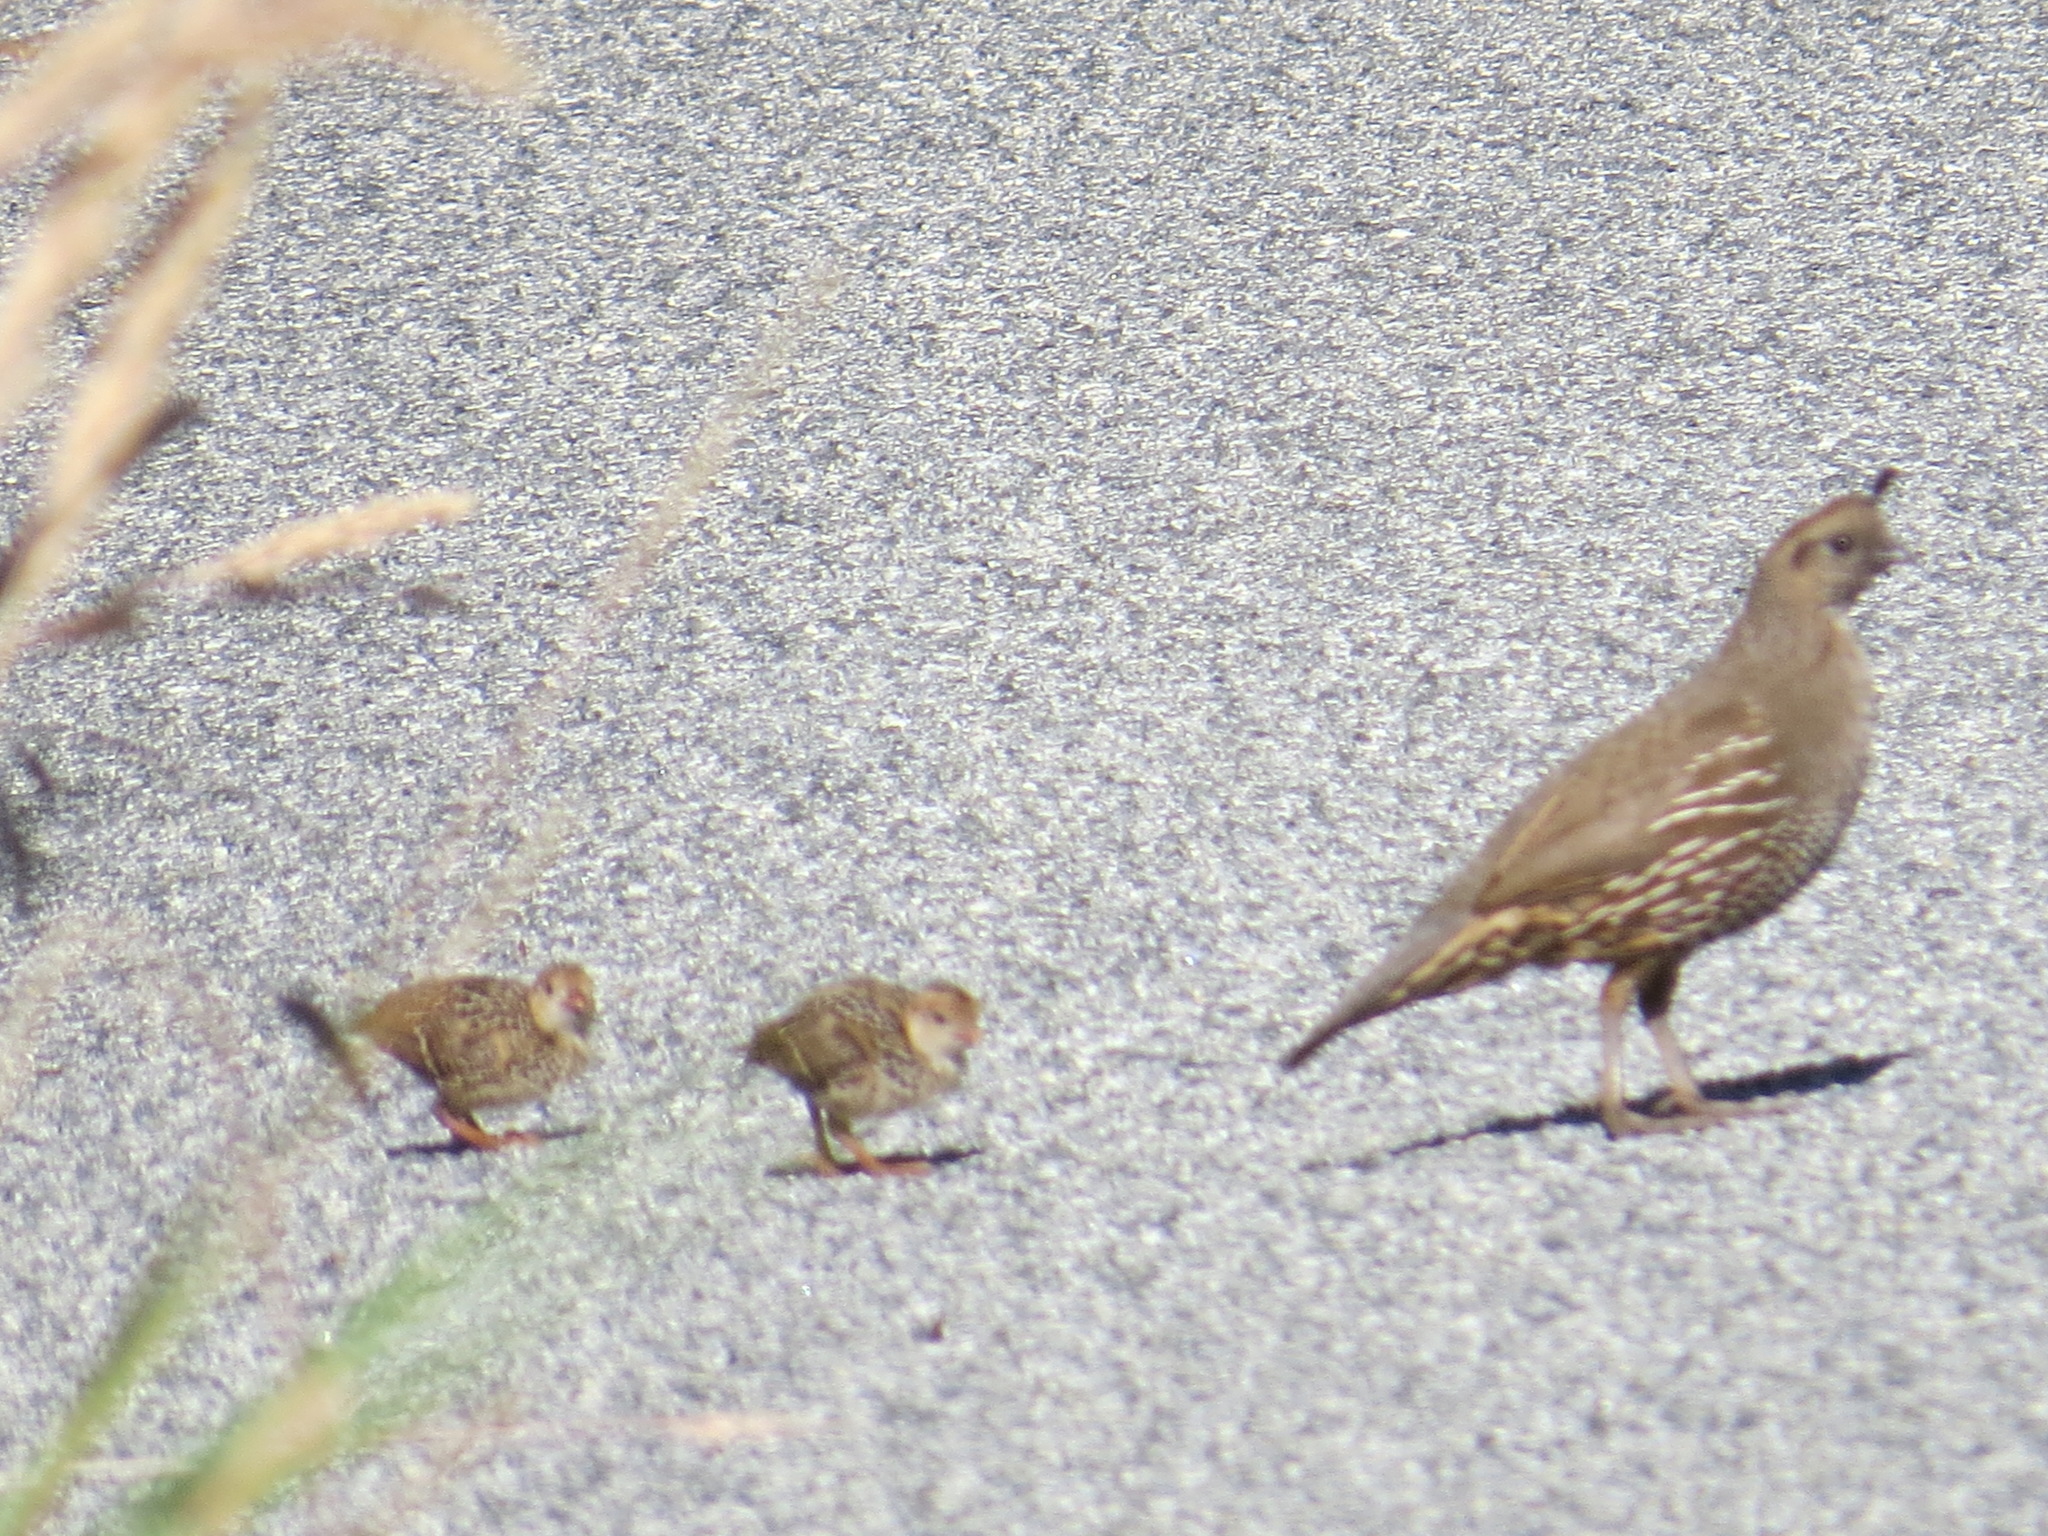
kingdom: Animalia
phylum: Chordata
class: Aves
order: Galliformes
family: Odontophoridae
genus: Callipepla
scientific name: Callipepla californica
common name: California quail
